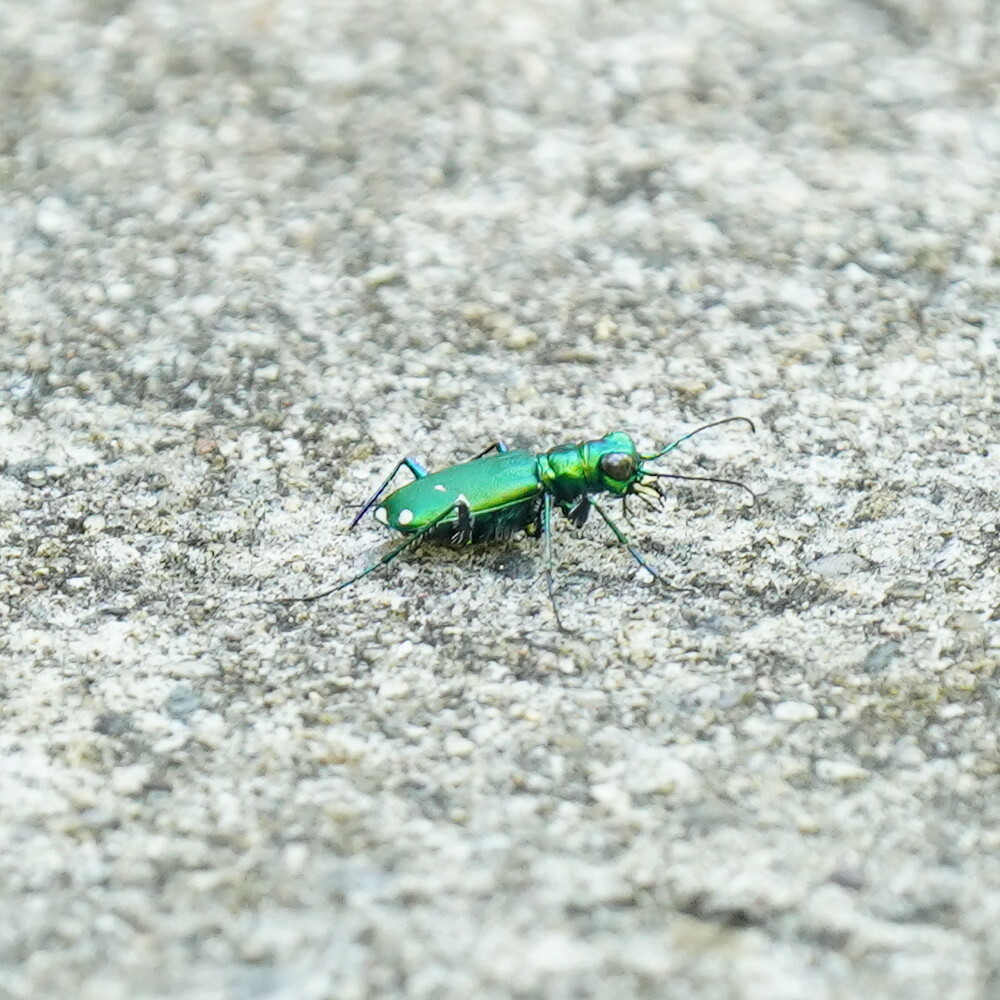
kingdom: Animalia
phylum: Arthropoda
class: Insecta
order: Coleoptera
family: Carabidae
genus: Cicindela
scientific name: Cicindela sexguttata
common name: Six-spotted tiger beetle
